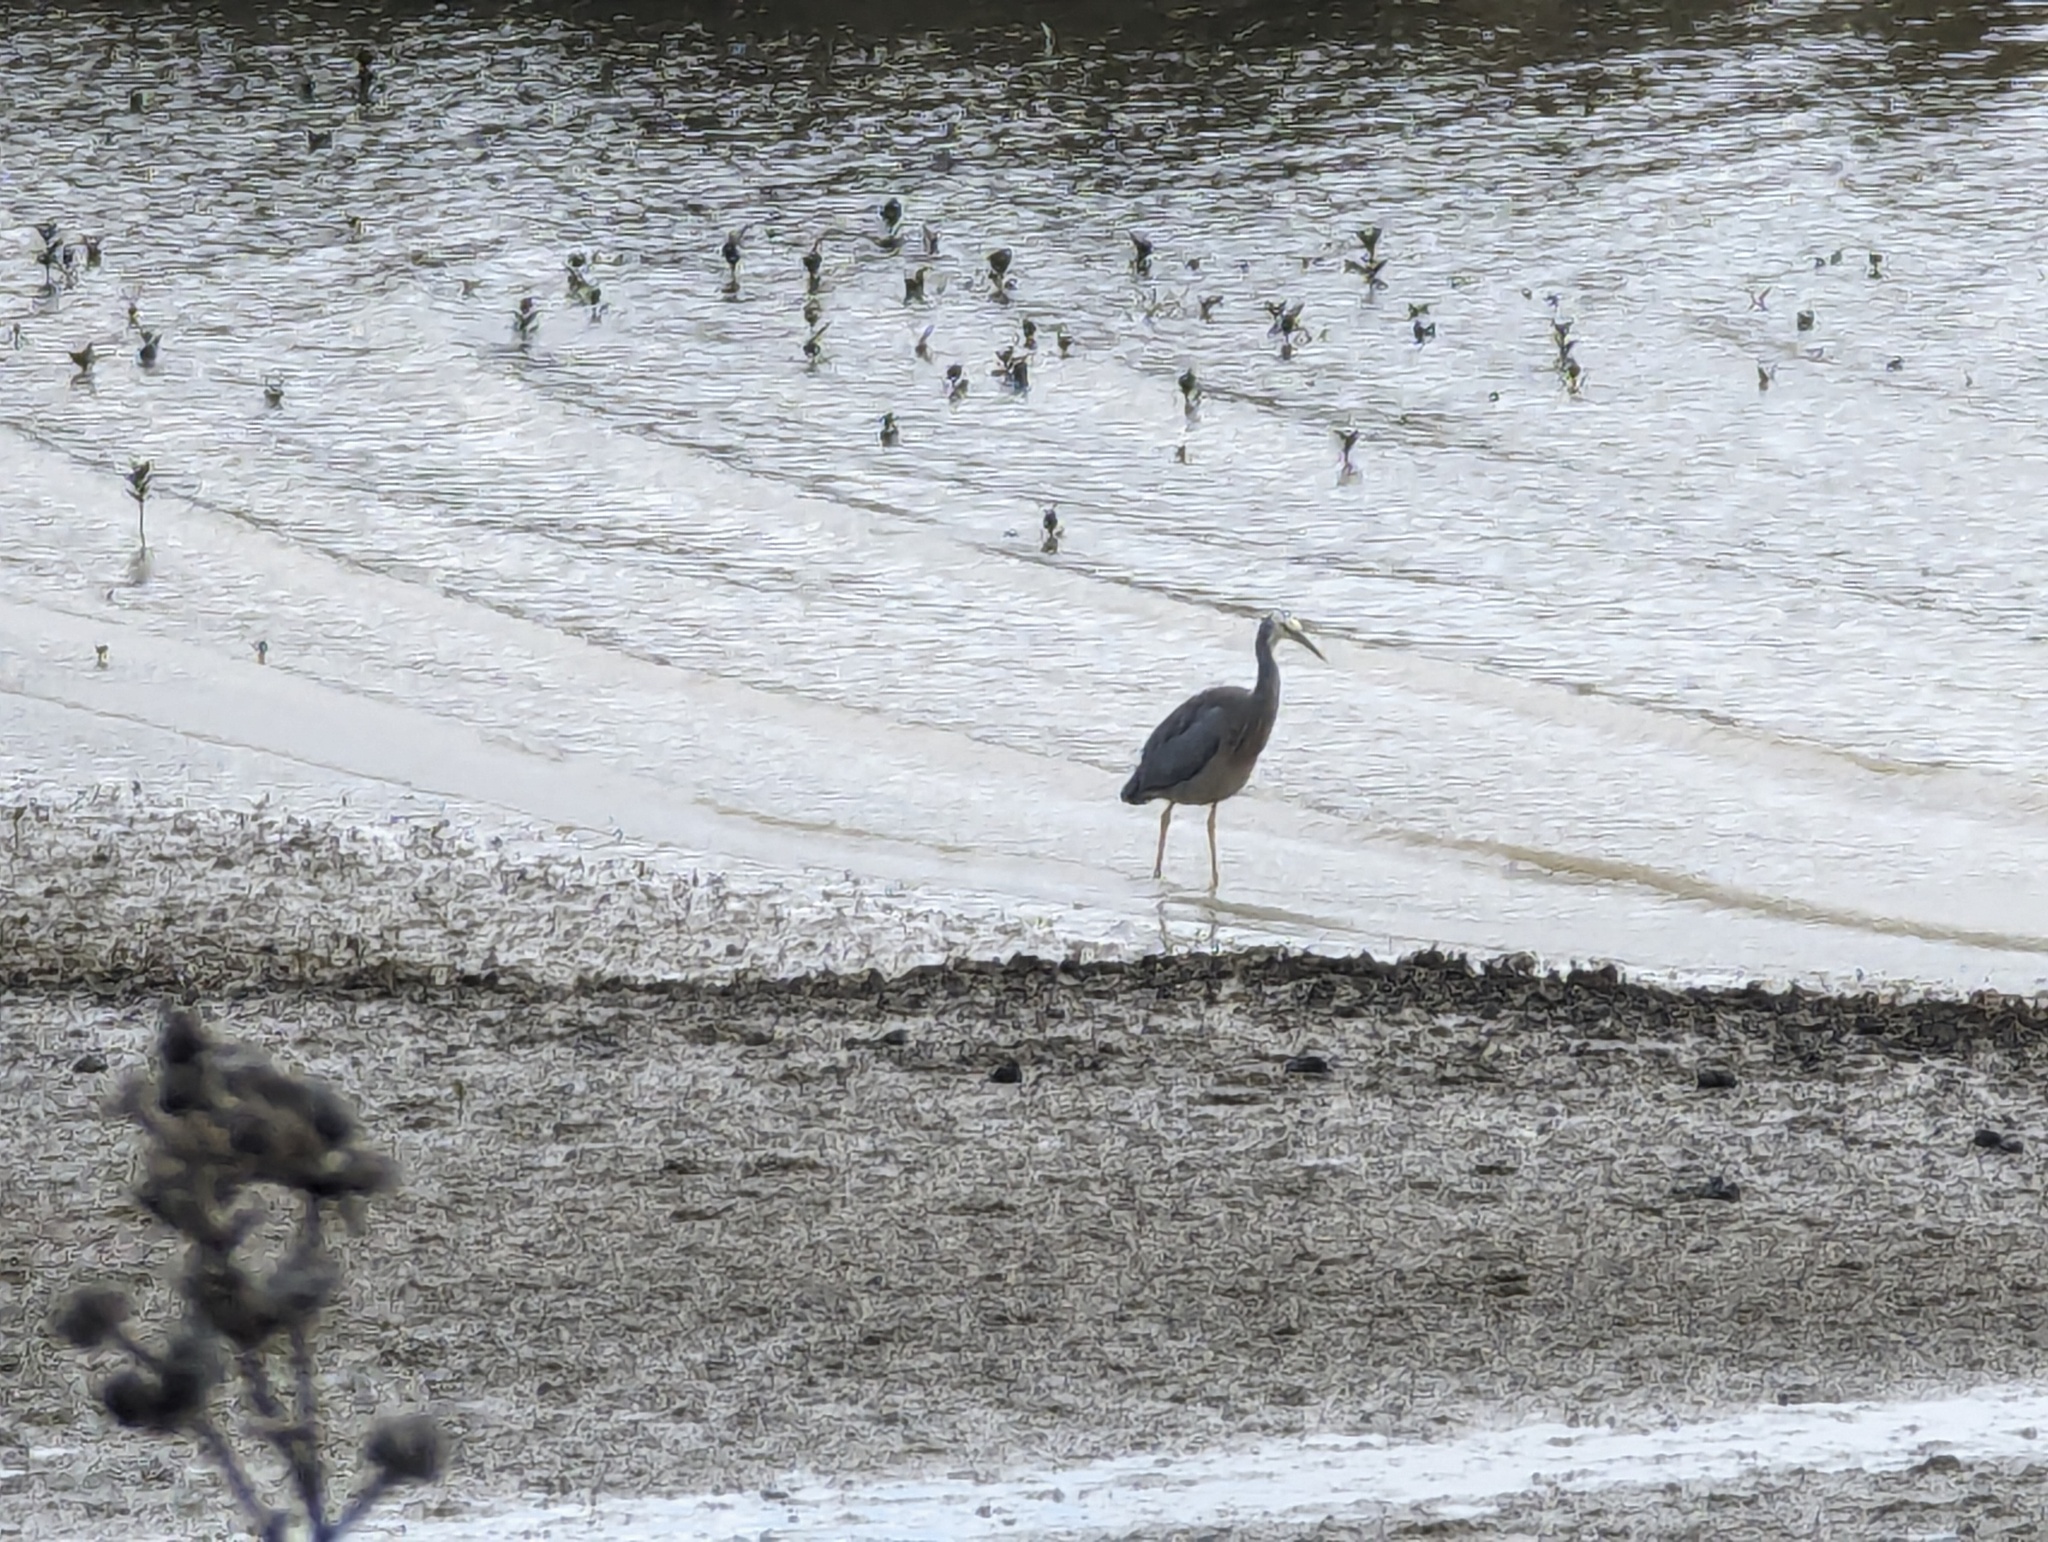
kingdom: Animalia
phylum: Chordata
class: Aves
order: Pelecaniformes
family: Ardeidae
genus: Egretta
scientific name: Egretta novaehollandiae
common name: White-faced heron
